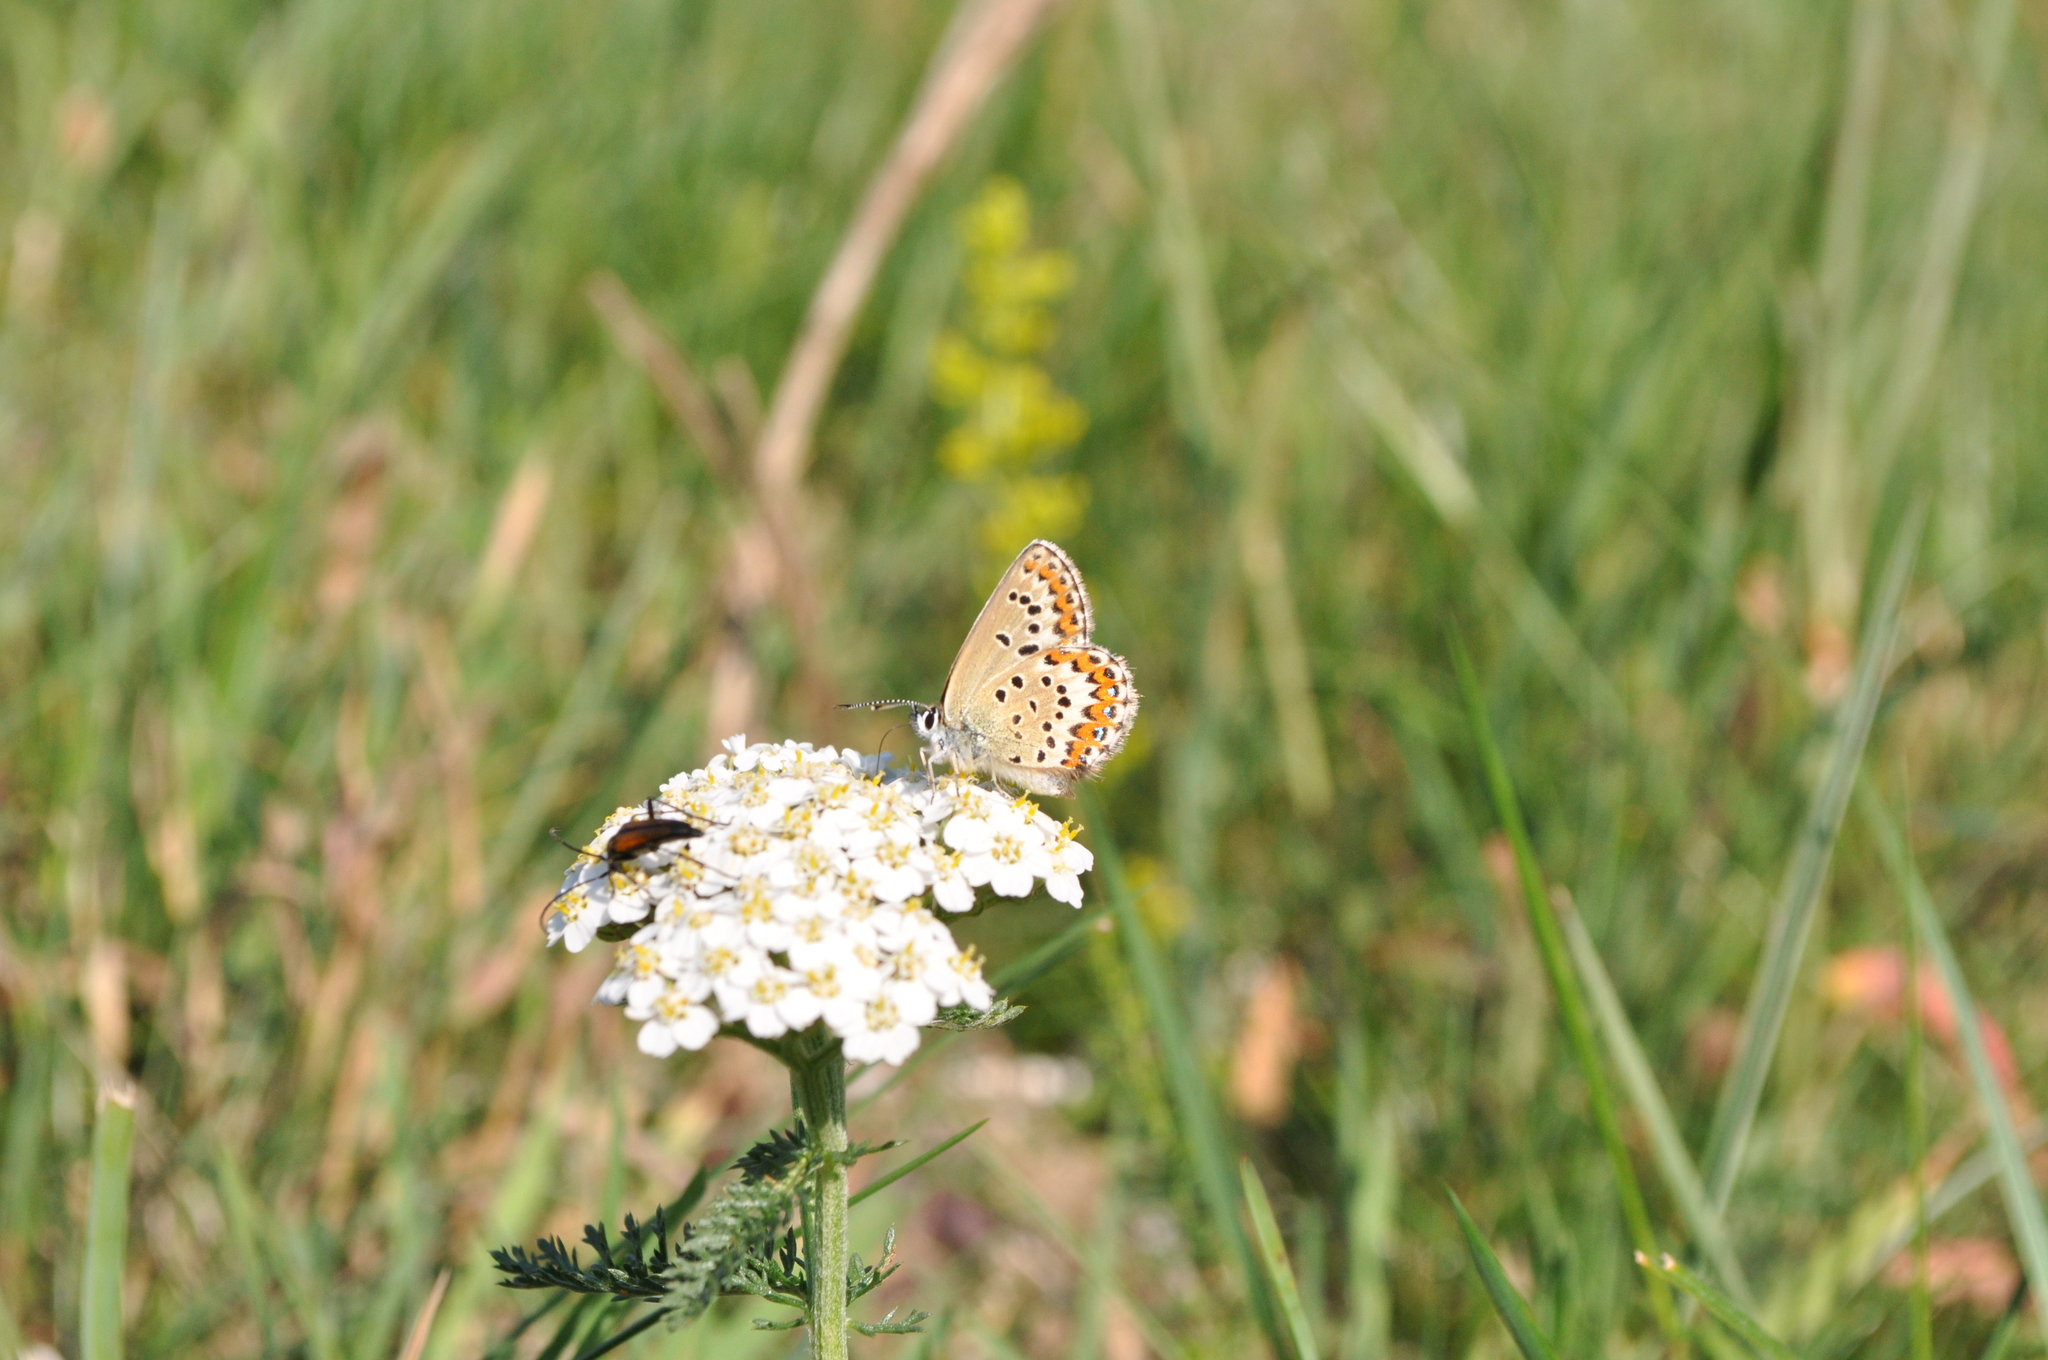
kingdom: Animalia
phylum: Arthropoda
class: Insecta
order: Lepidoptera
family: Lycaenidae
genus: Lycaeides
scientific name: Lycaeides idas
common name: Northern blue
